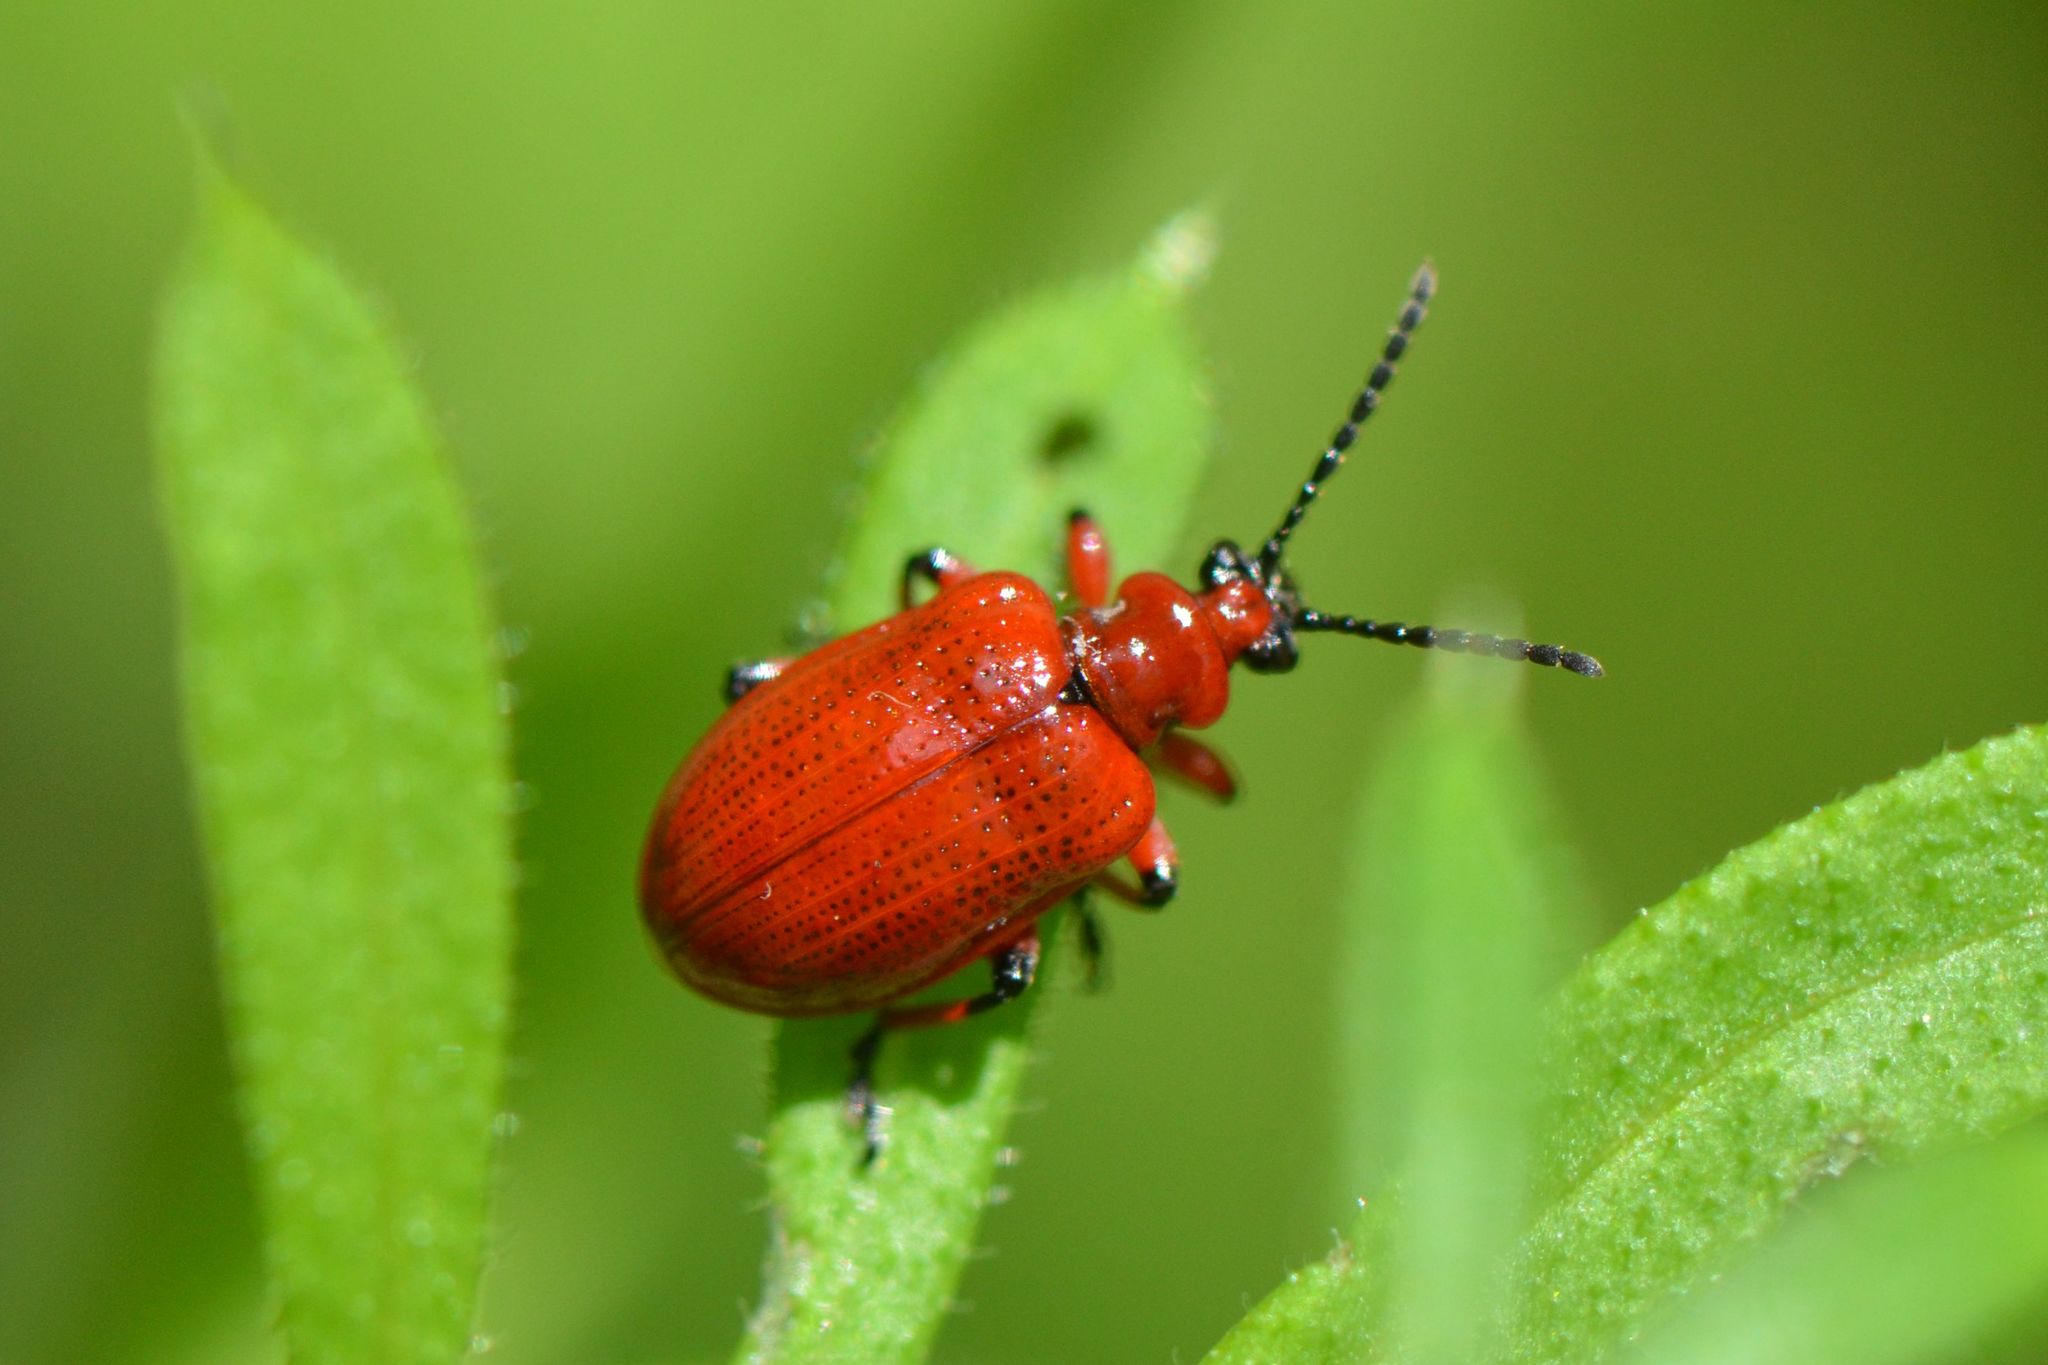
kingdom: Animalia
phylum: Arthropoda
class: Insecta
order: Coleoptera
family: Chrysomelidae
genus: Lilioceris
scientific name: Lilioceris merdigera
